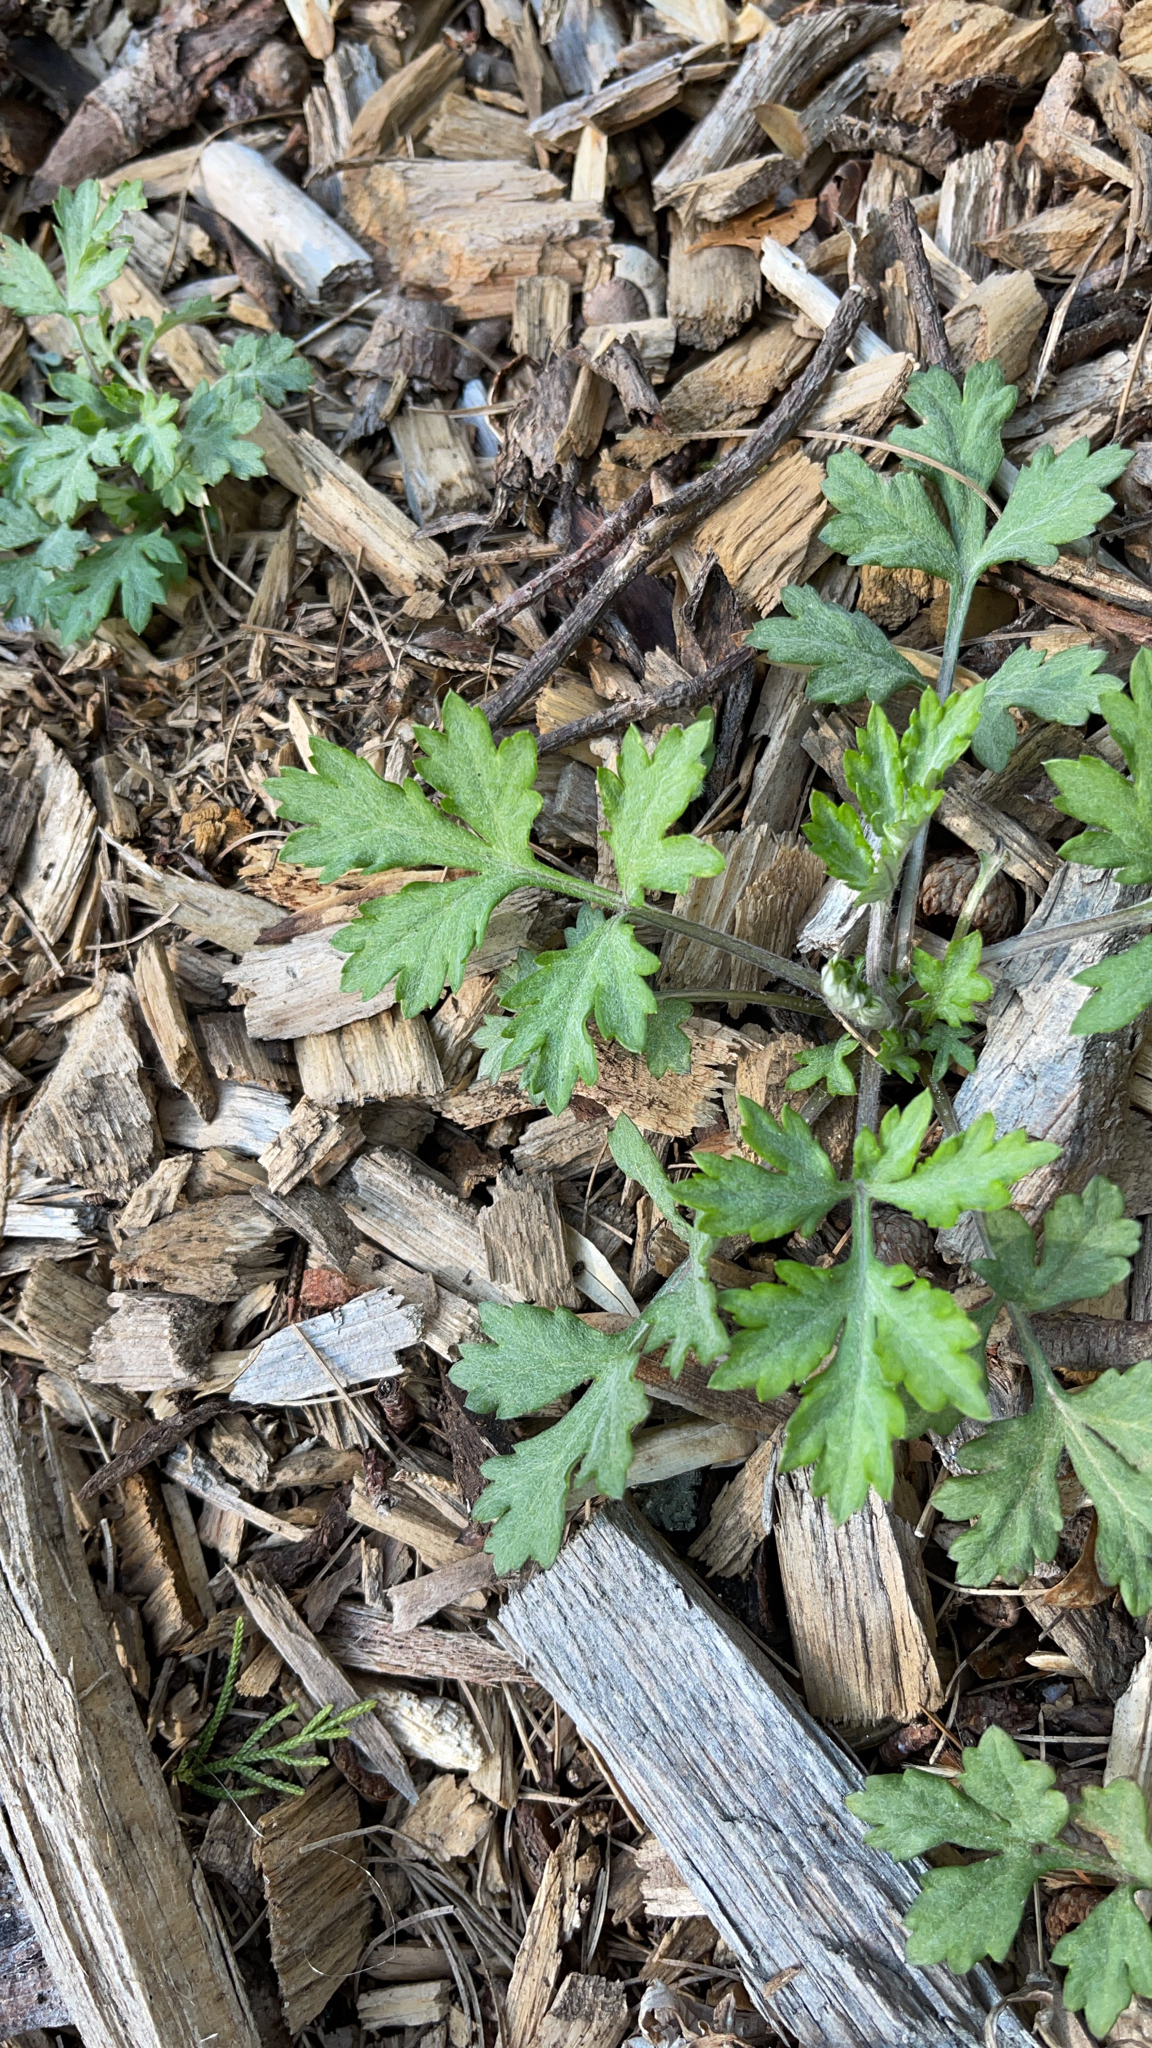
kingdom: Plantae
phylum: Tracheophyta
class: Magnoliopsida
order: Asterales
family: Asteraceae
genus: Artemisia
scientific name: Artemisia vulgaris
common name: Mugwort
